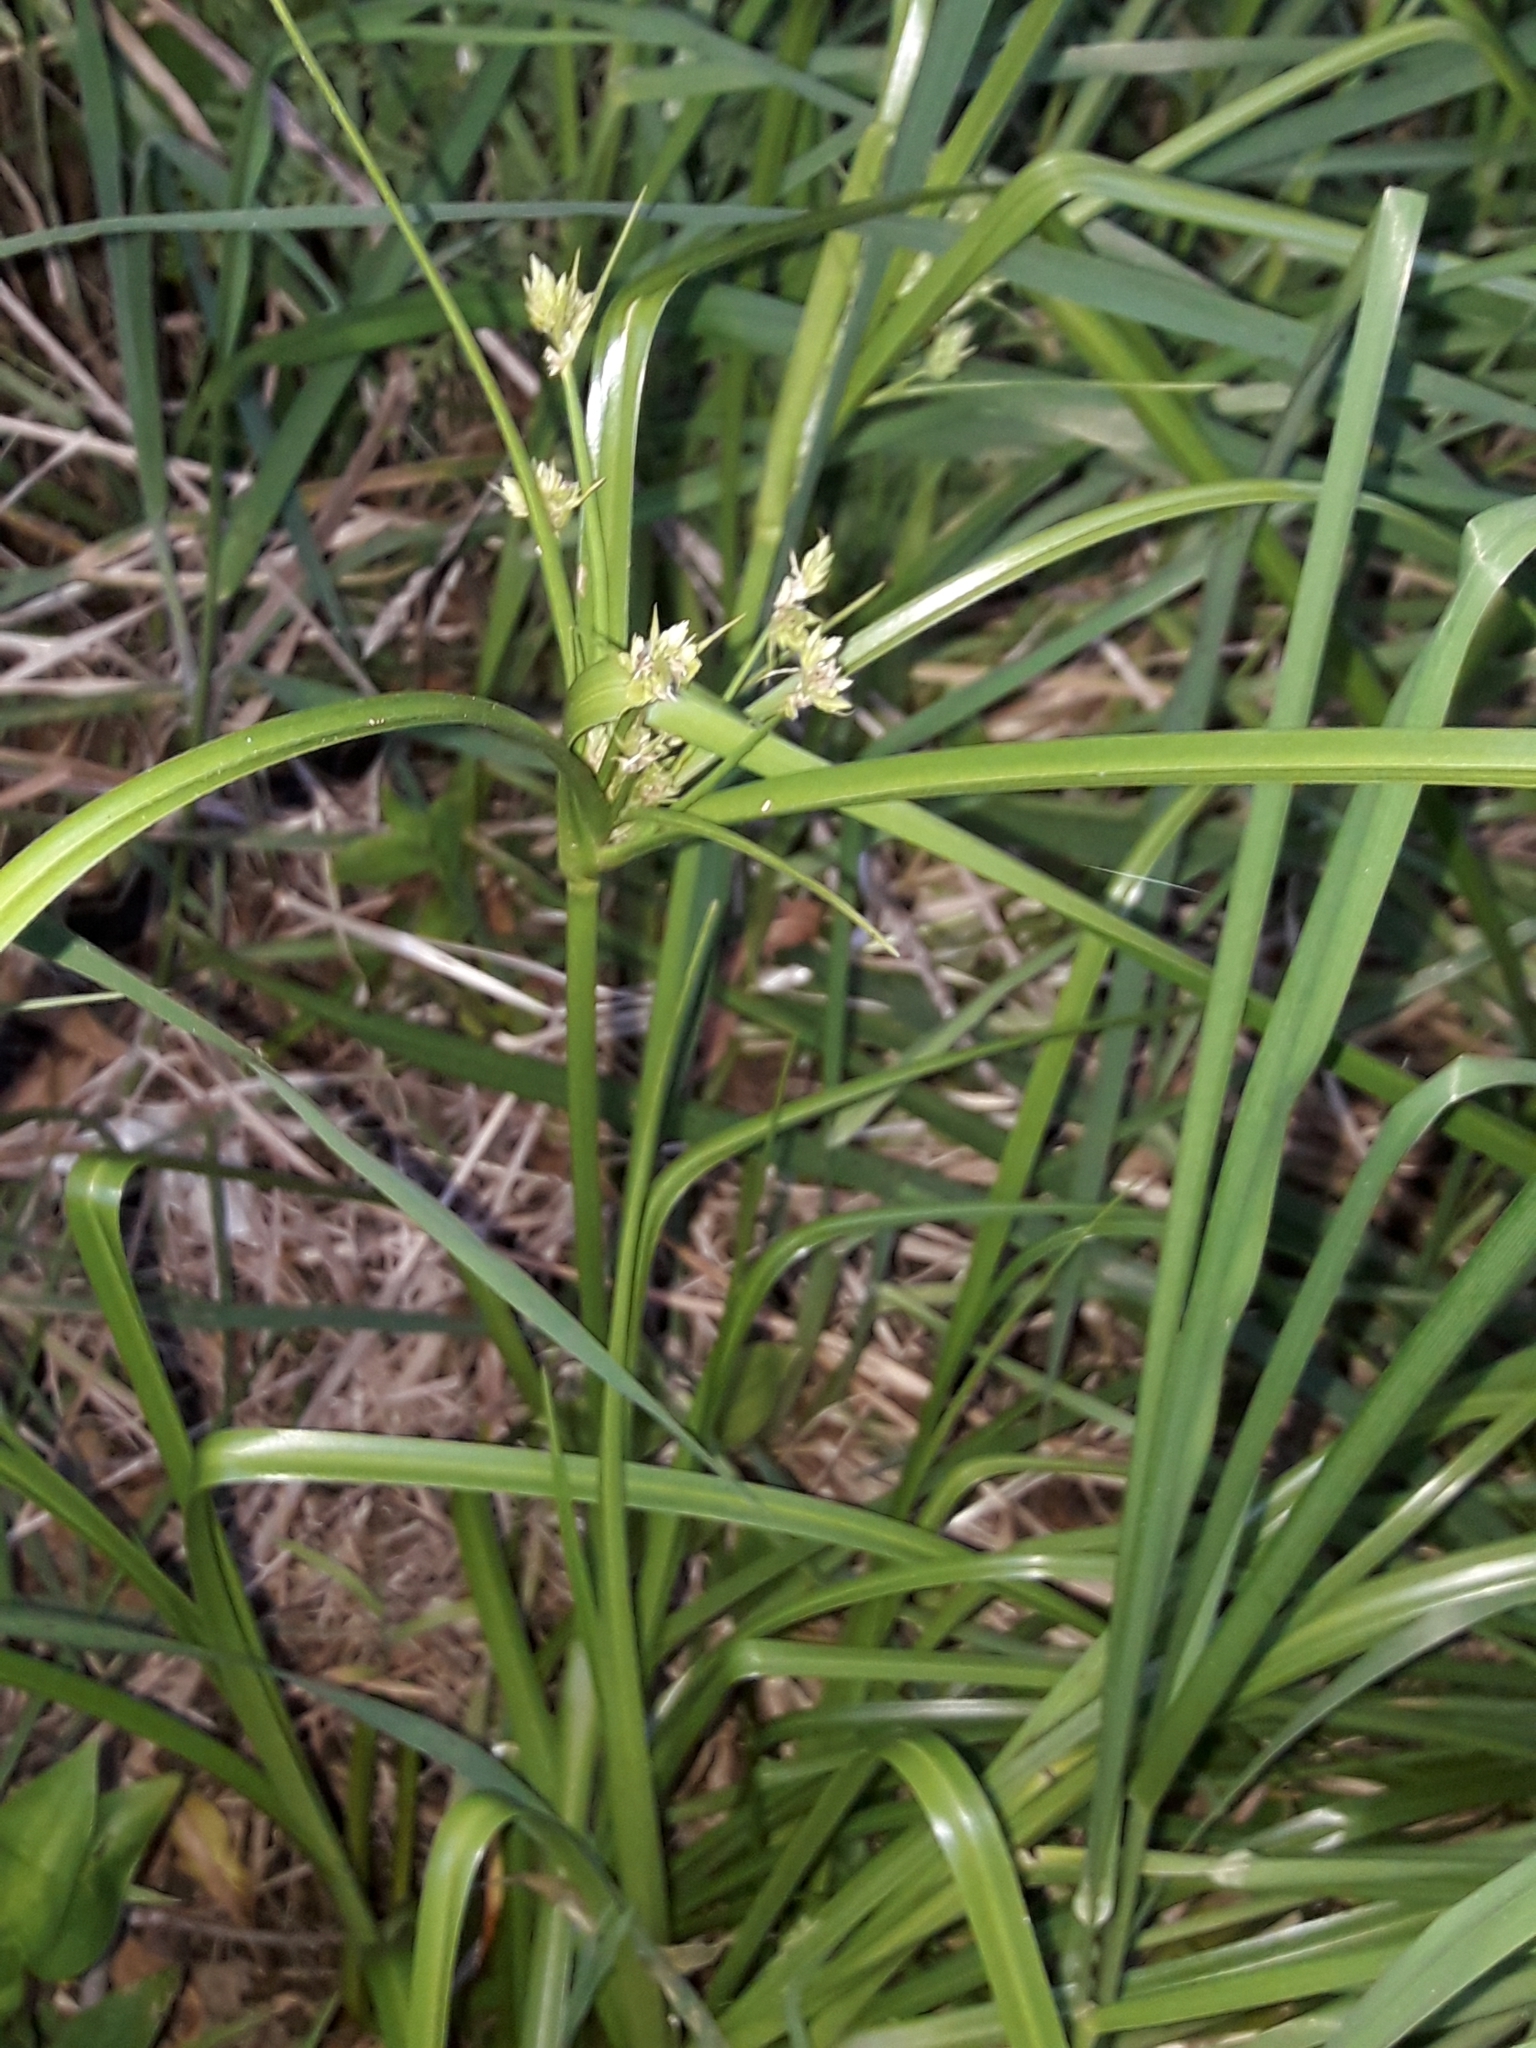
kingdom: Plantae
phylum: Tracheophyta
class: Liliopsida
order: Poales
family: Cyperaceae
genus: Cyperus
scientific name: Cyperus eragrostis
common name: Tall flatsedge
